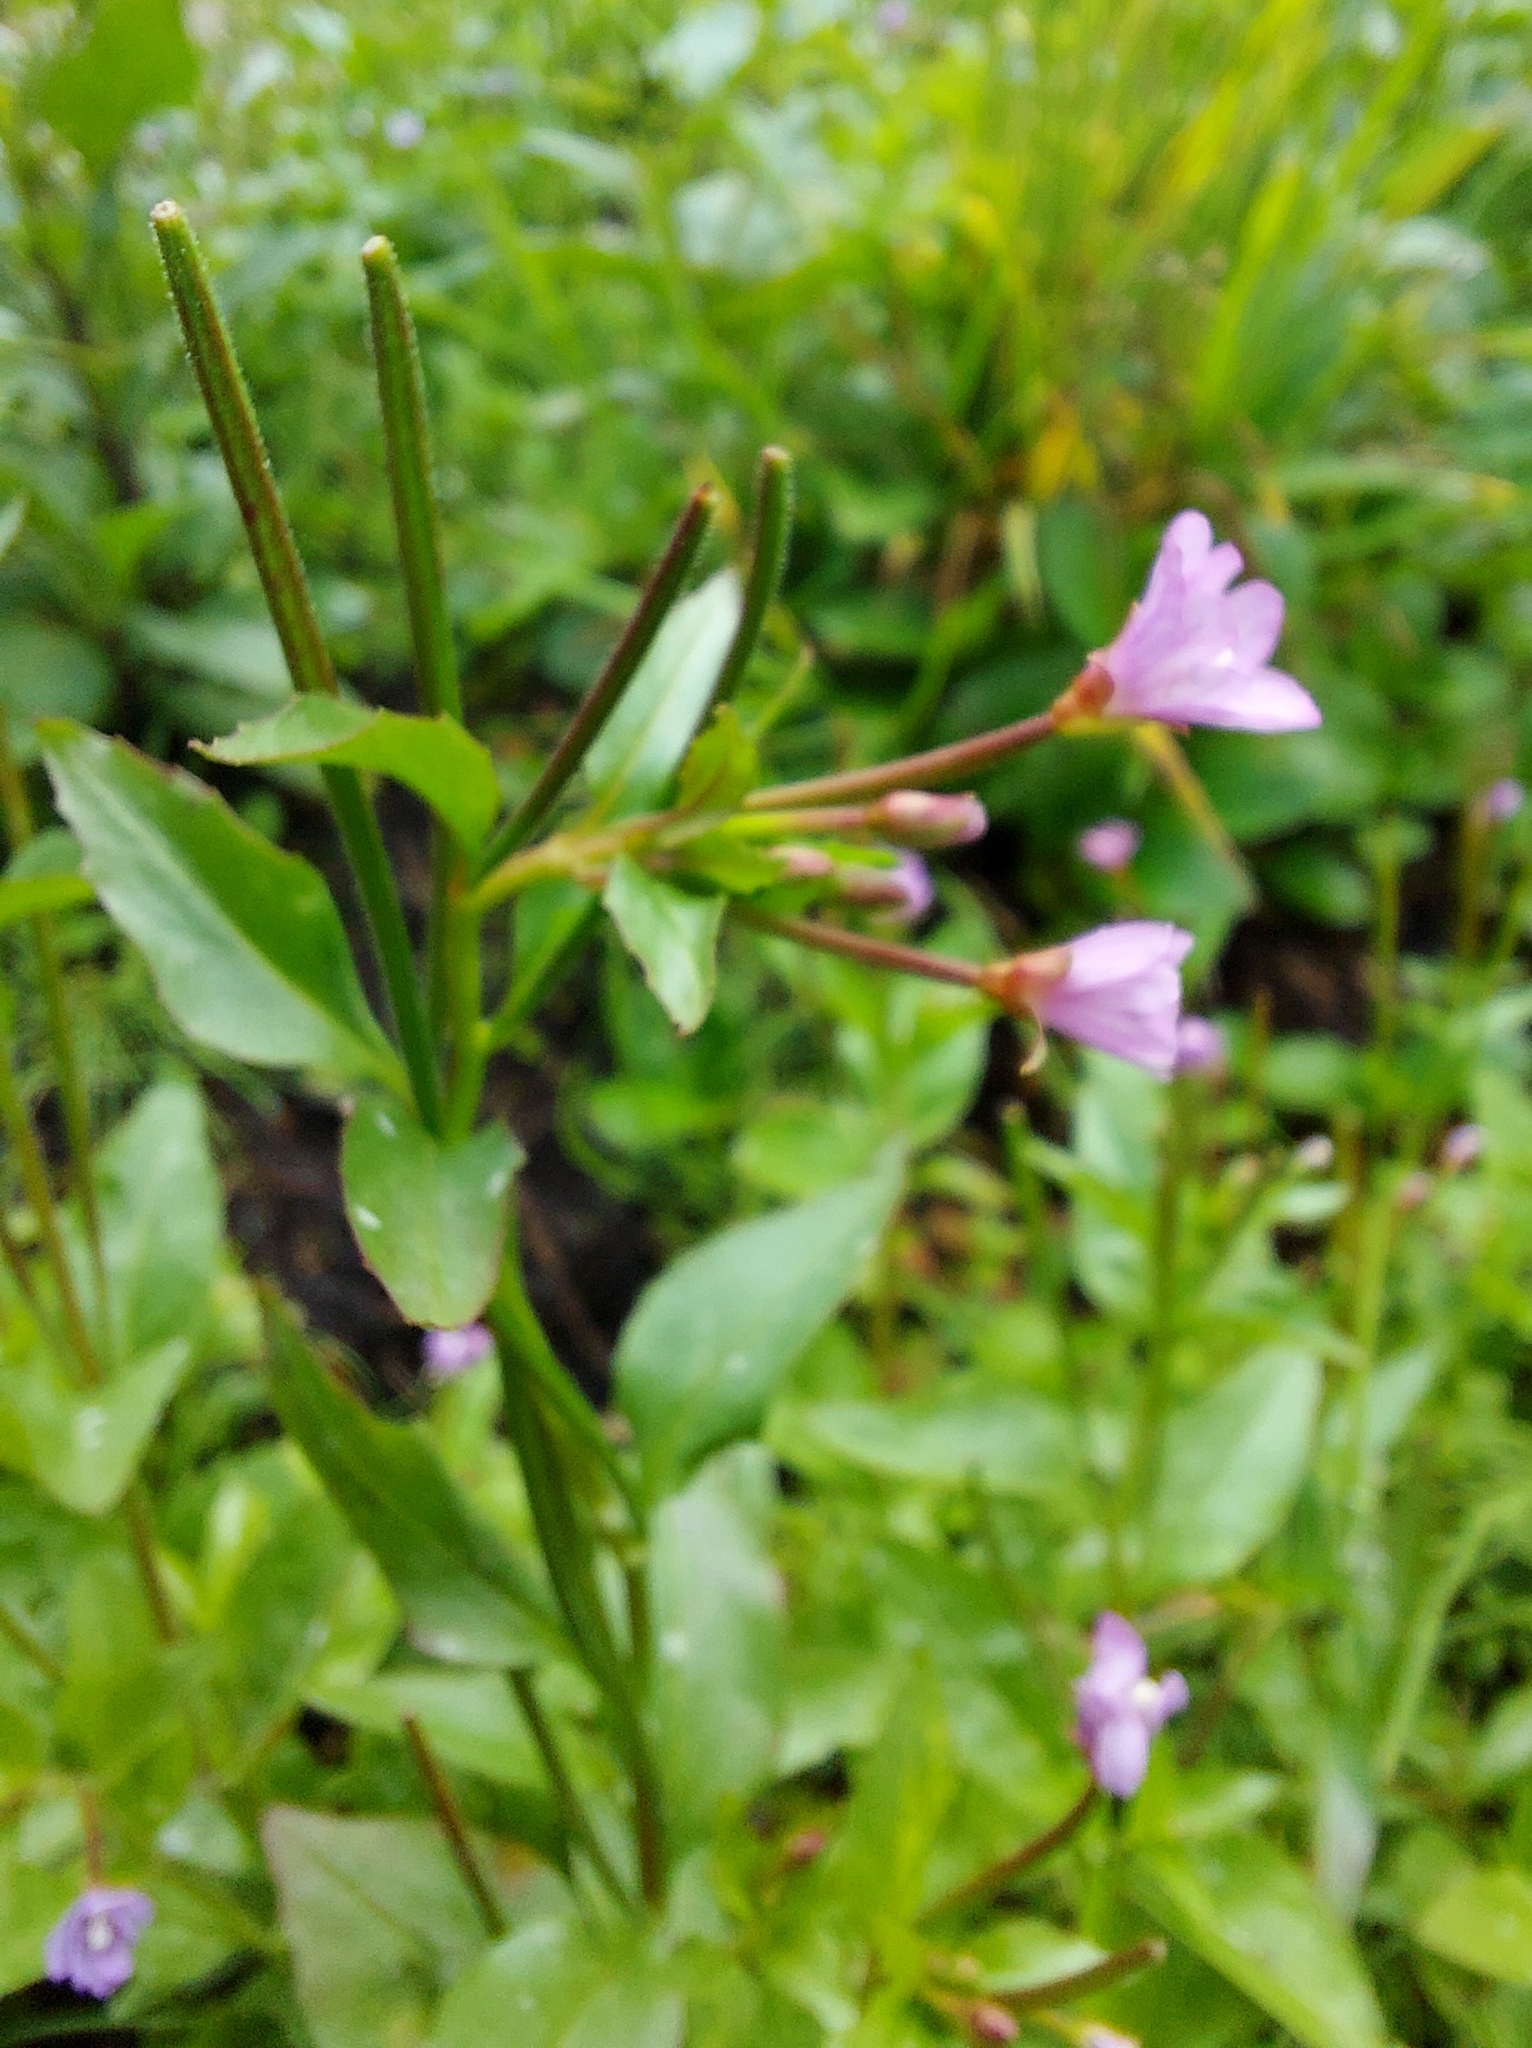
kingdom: Plantae
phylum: Tracheophyta
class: Magnoliopsida
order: Myrtales
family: Onagraceae
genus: Epilobium
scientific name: Epilobium anagallidifolium
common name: Alpine willowherb
